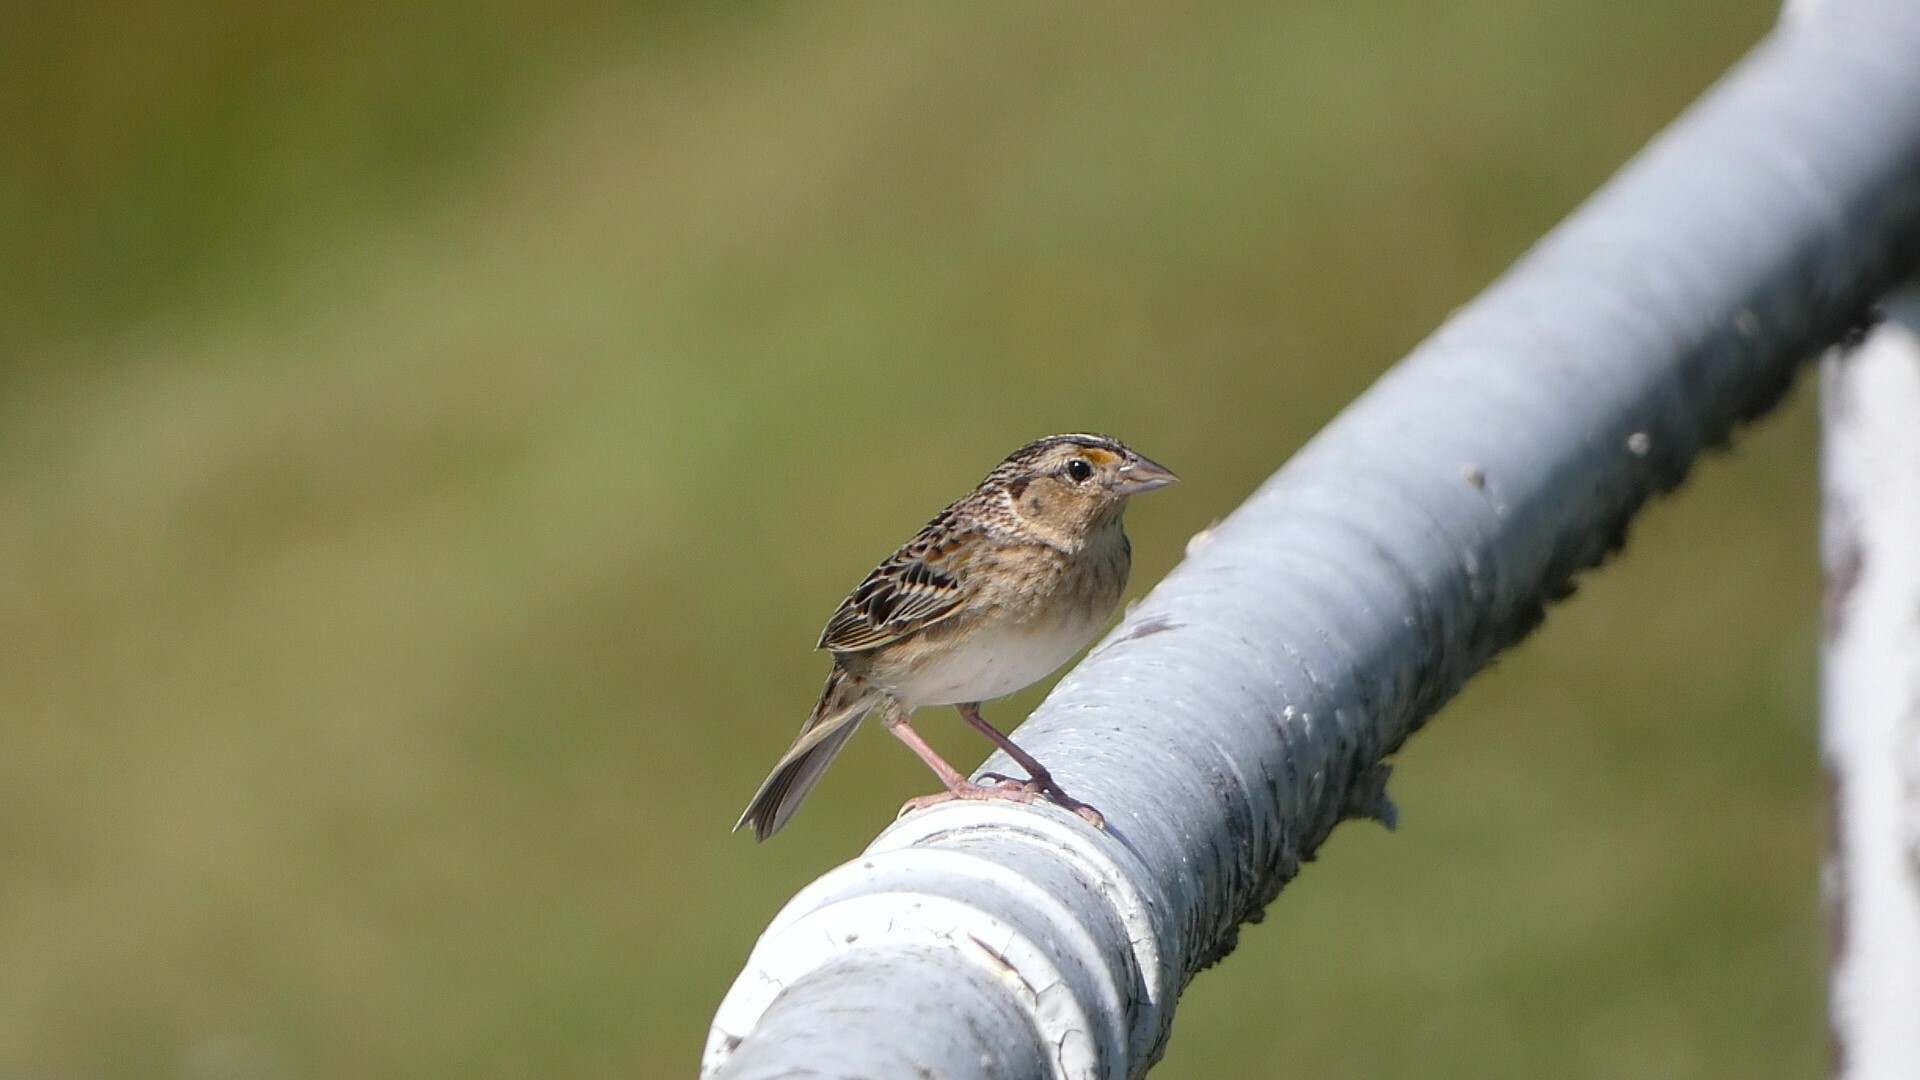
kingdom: Animalia
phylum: Chordata
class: Aves
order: Passeriformes
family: Passerellidae
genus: Ammodramus
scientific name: Ammodramus savannarum
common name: Grasshopper sparrow
